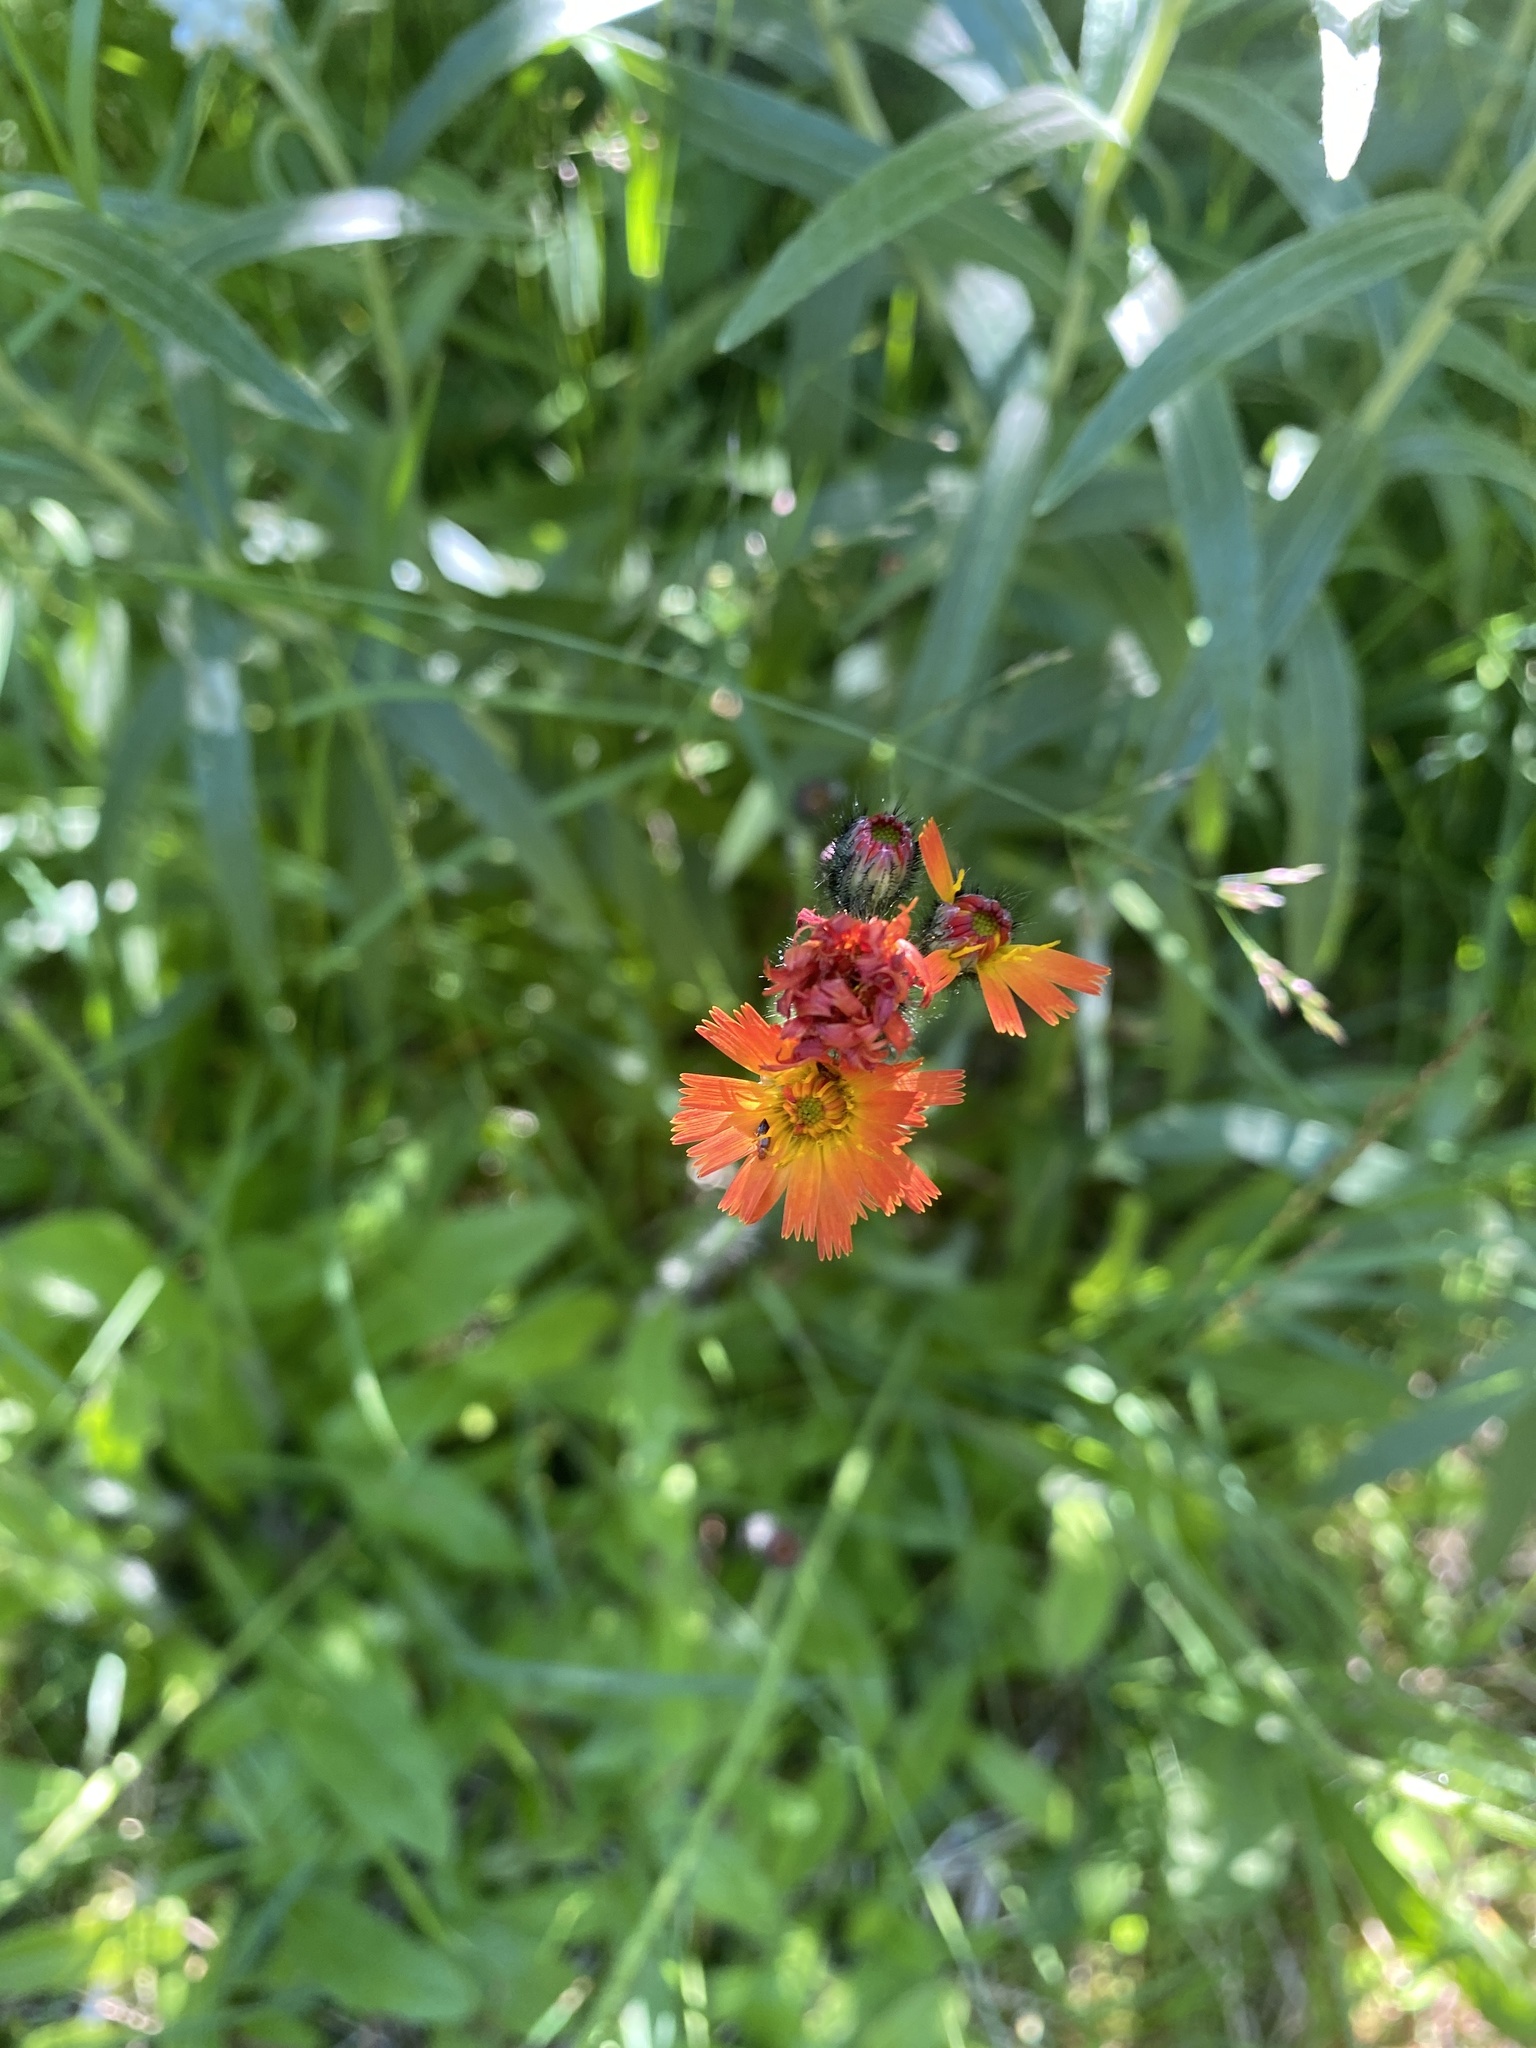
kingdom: Plantae
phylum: Tracheophyta
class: Magnoliopsida
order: Asterales
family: Asteraceae
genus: Pilosella
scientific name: Pilosella aurantiaca
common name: Fox-and-cubs
